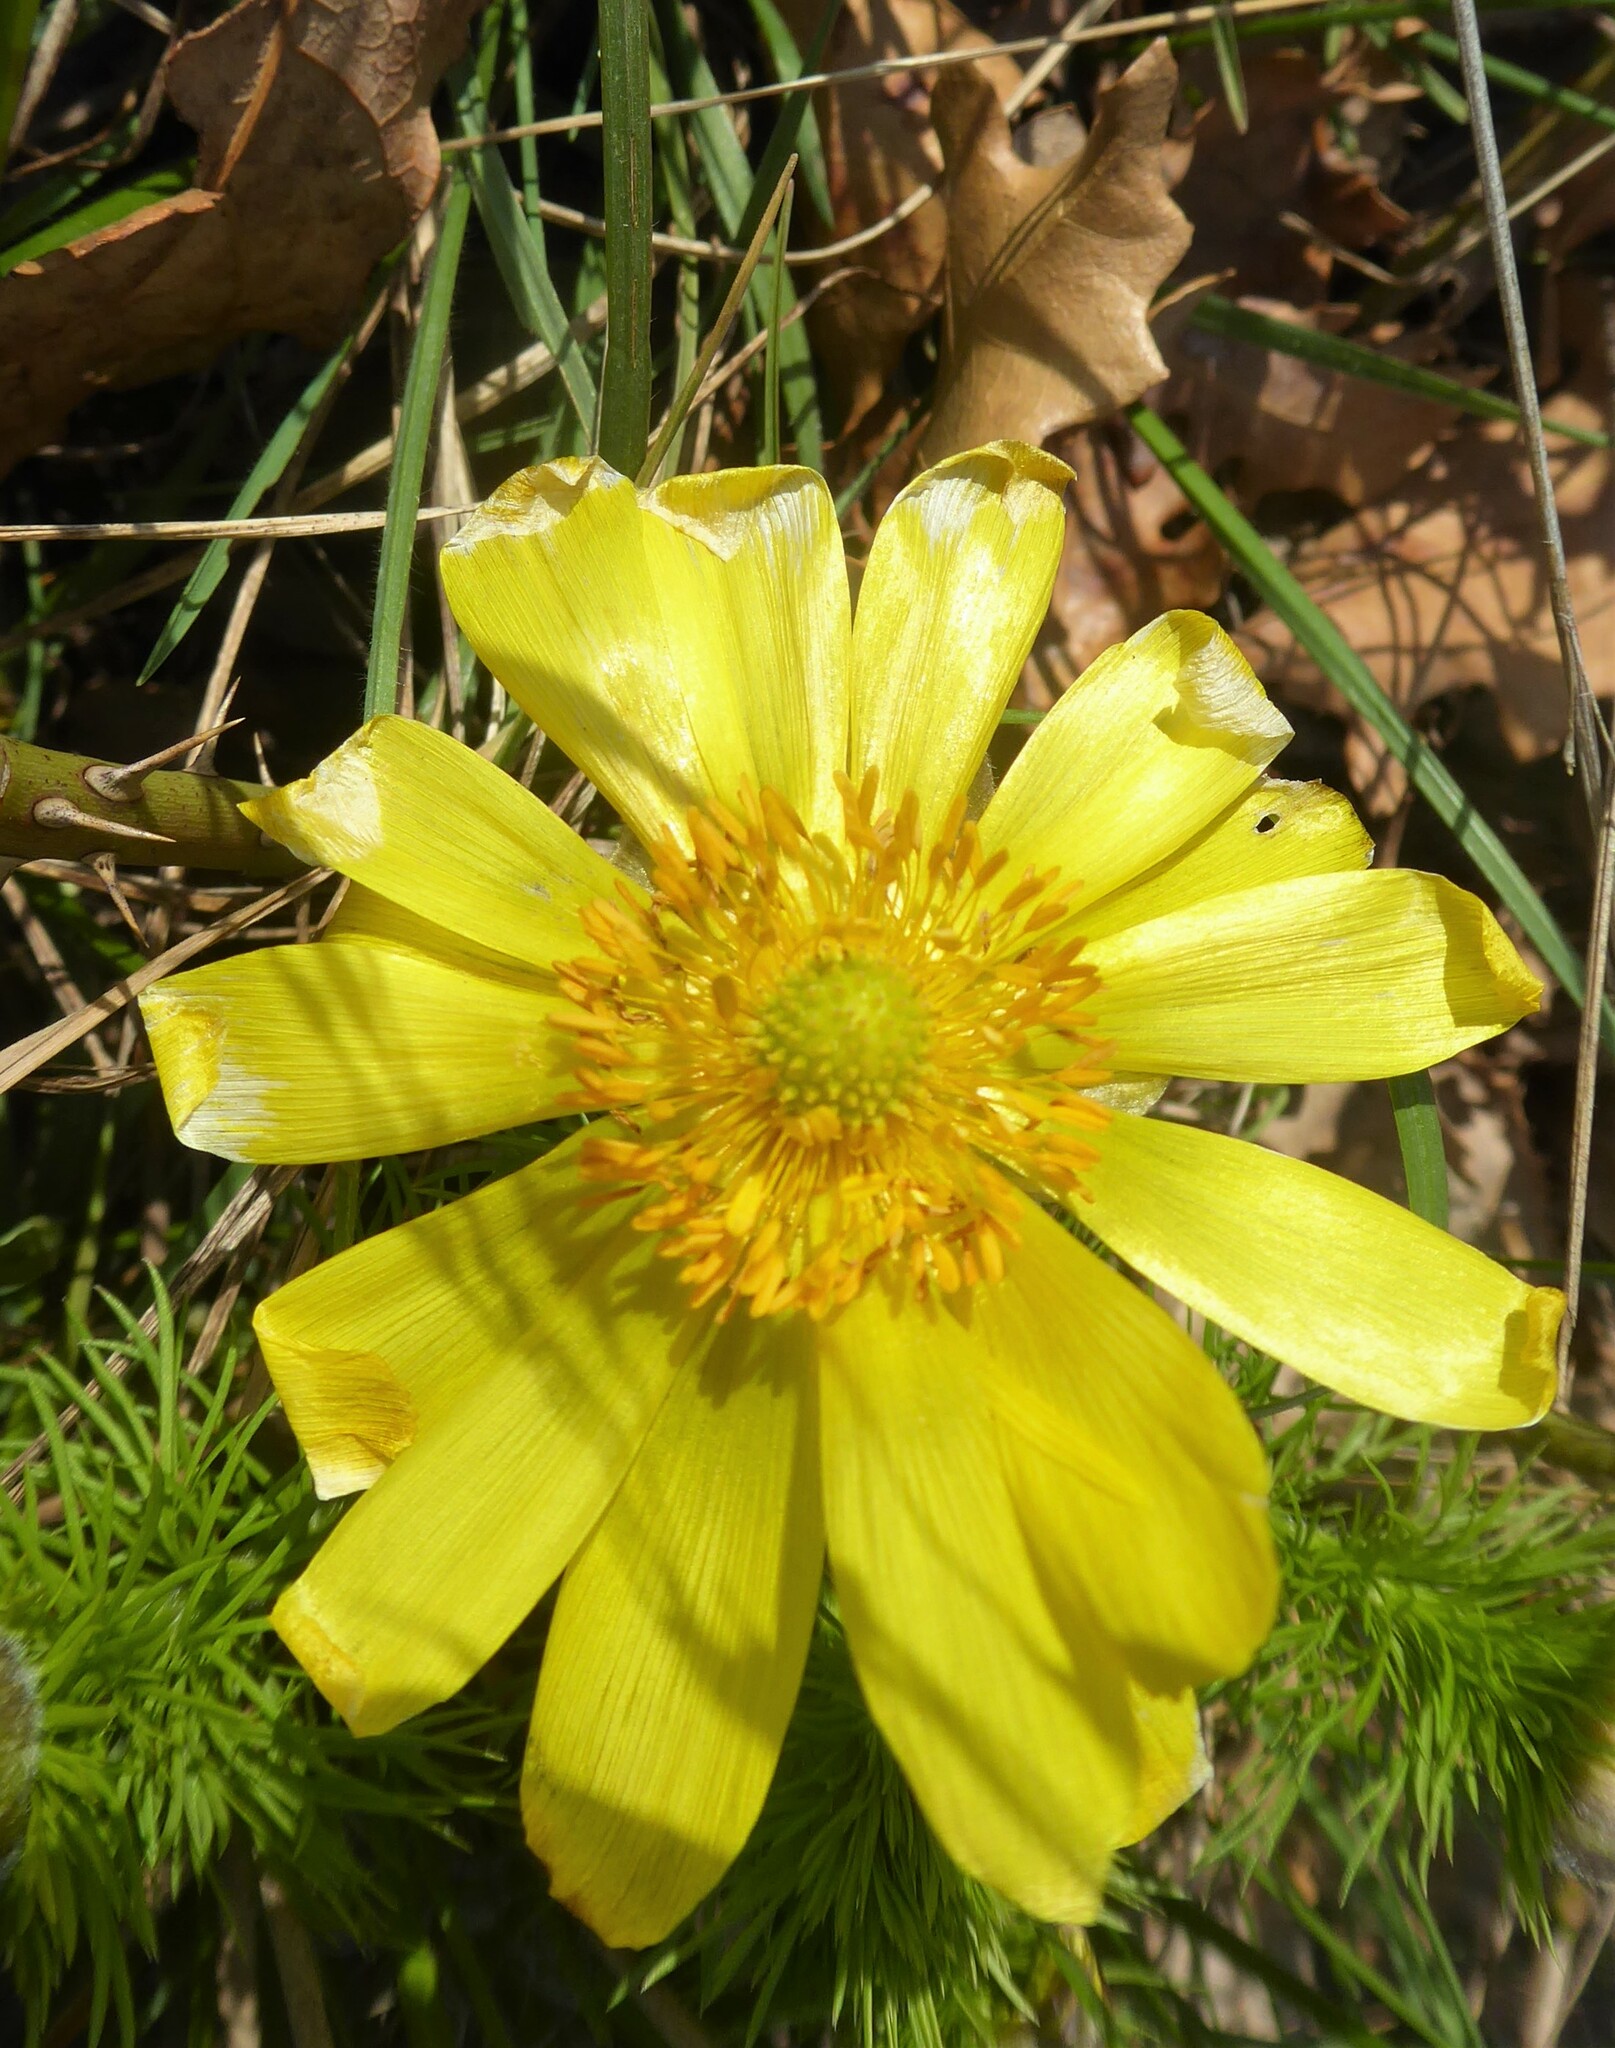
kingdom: Plantae
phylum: Tracheophyta
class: Magnoliopsida
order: Ranunculales
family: Ranunculaceae
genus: Adonis
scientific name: Adonis vernalis
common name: Yellow pheasants-eye
